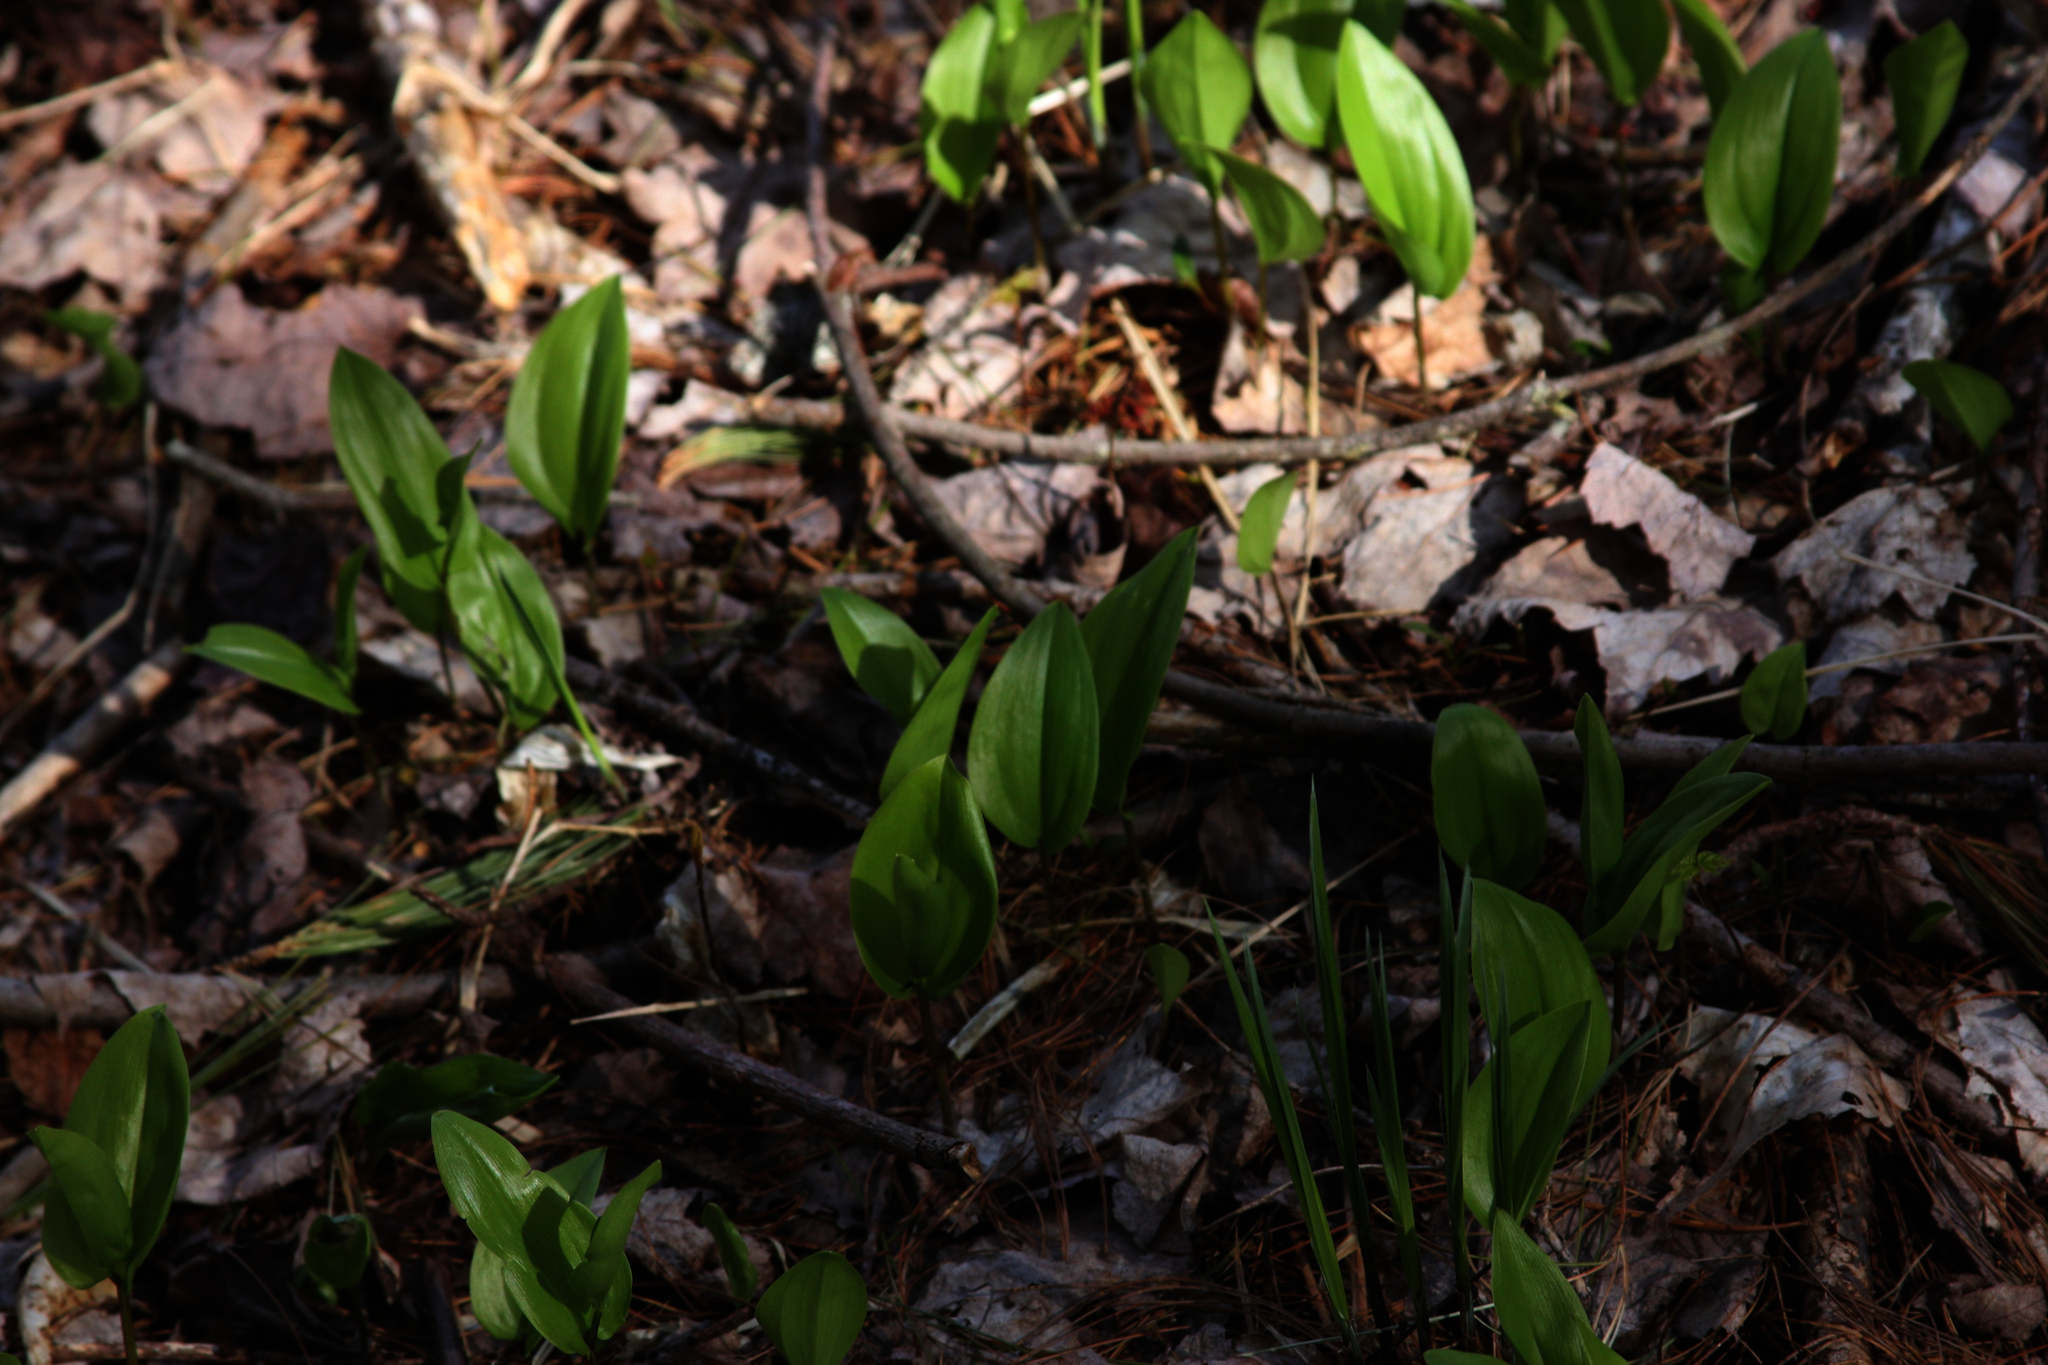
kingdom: Plantae
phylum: Tracheophyta
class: Liliopsida
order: Asparagales
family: Asparagaceae
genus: Maianthemum
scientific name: Maianthemum canadense
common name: False lily-of-the-valley
